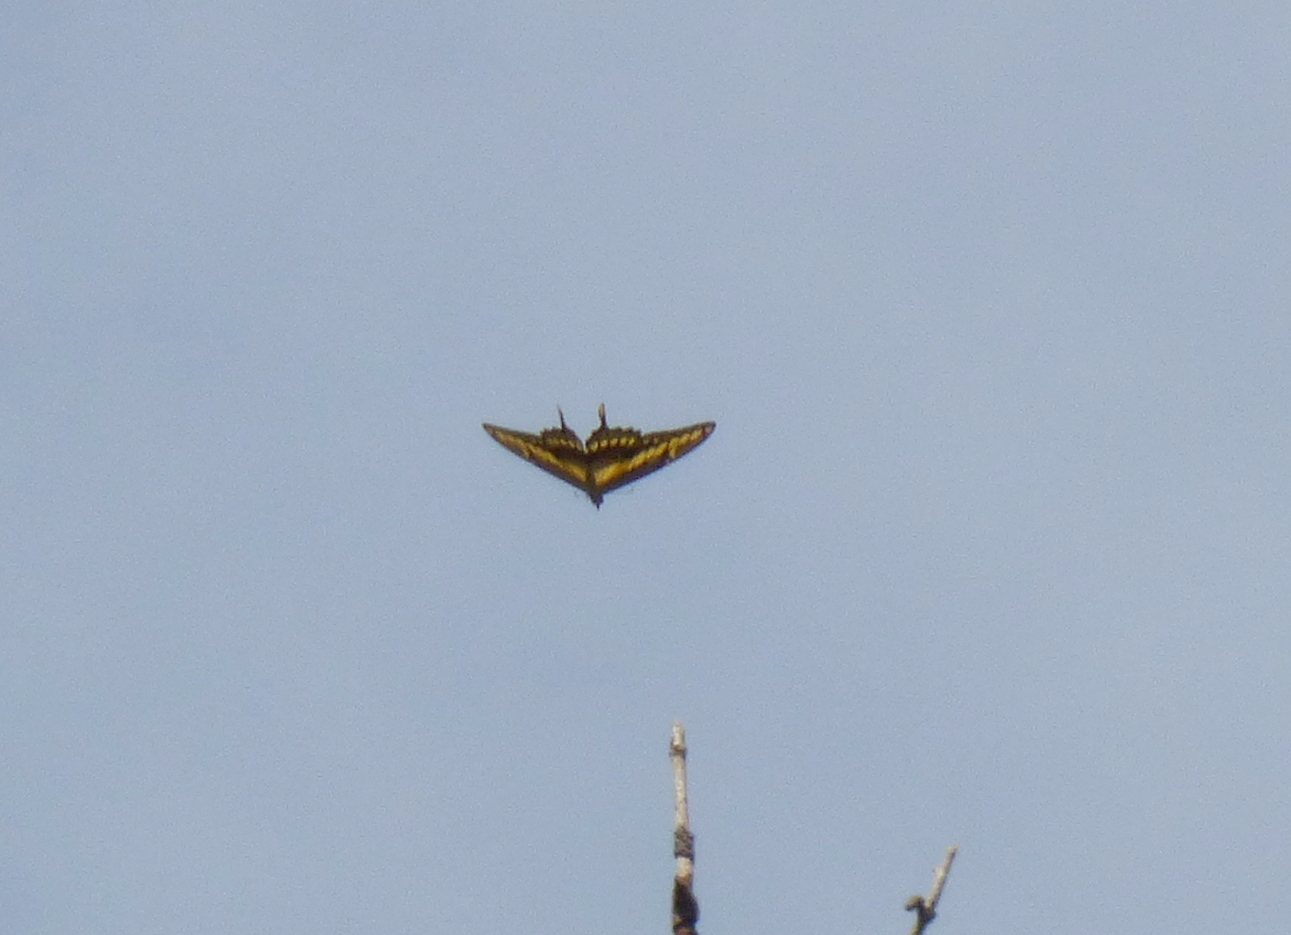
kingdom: Animalia
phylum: Arthropoda
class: Insecta
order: Lepidoptera
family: Papilionidae
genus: Papilio
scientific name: Papilio thoas
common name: King swallowtail
